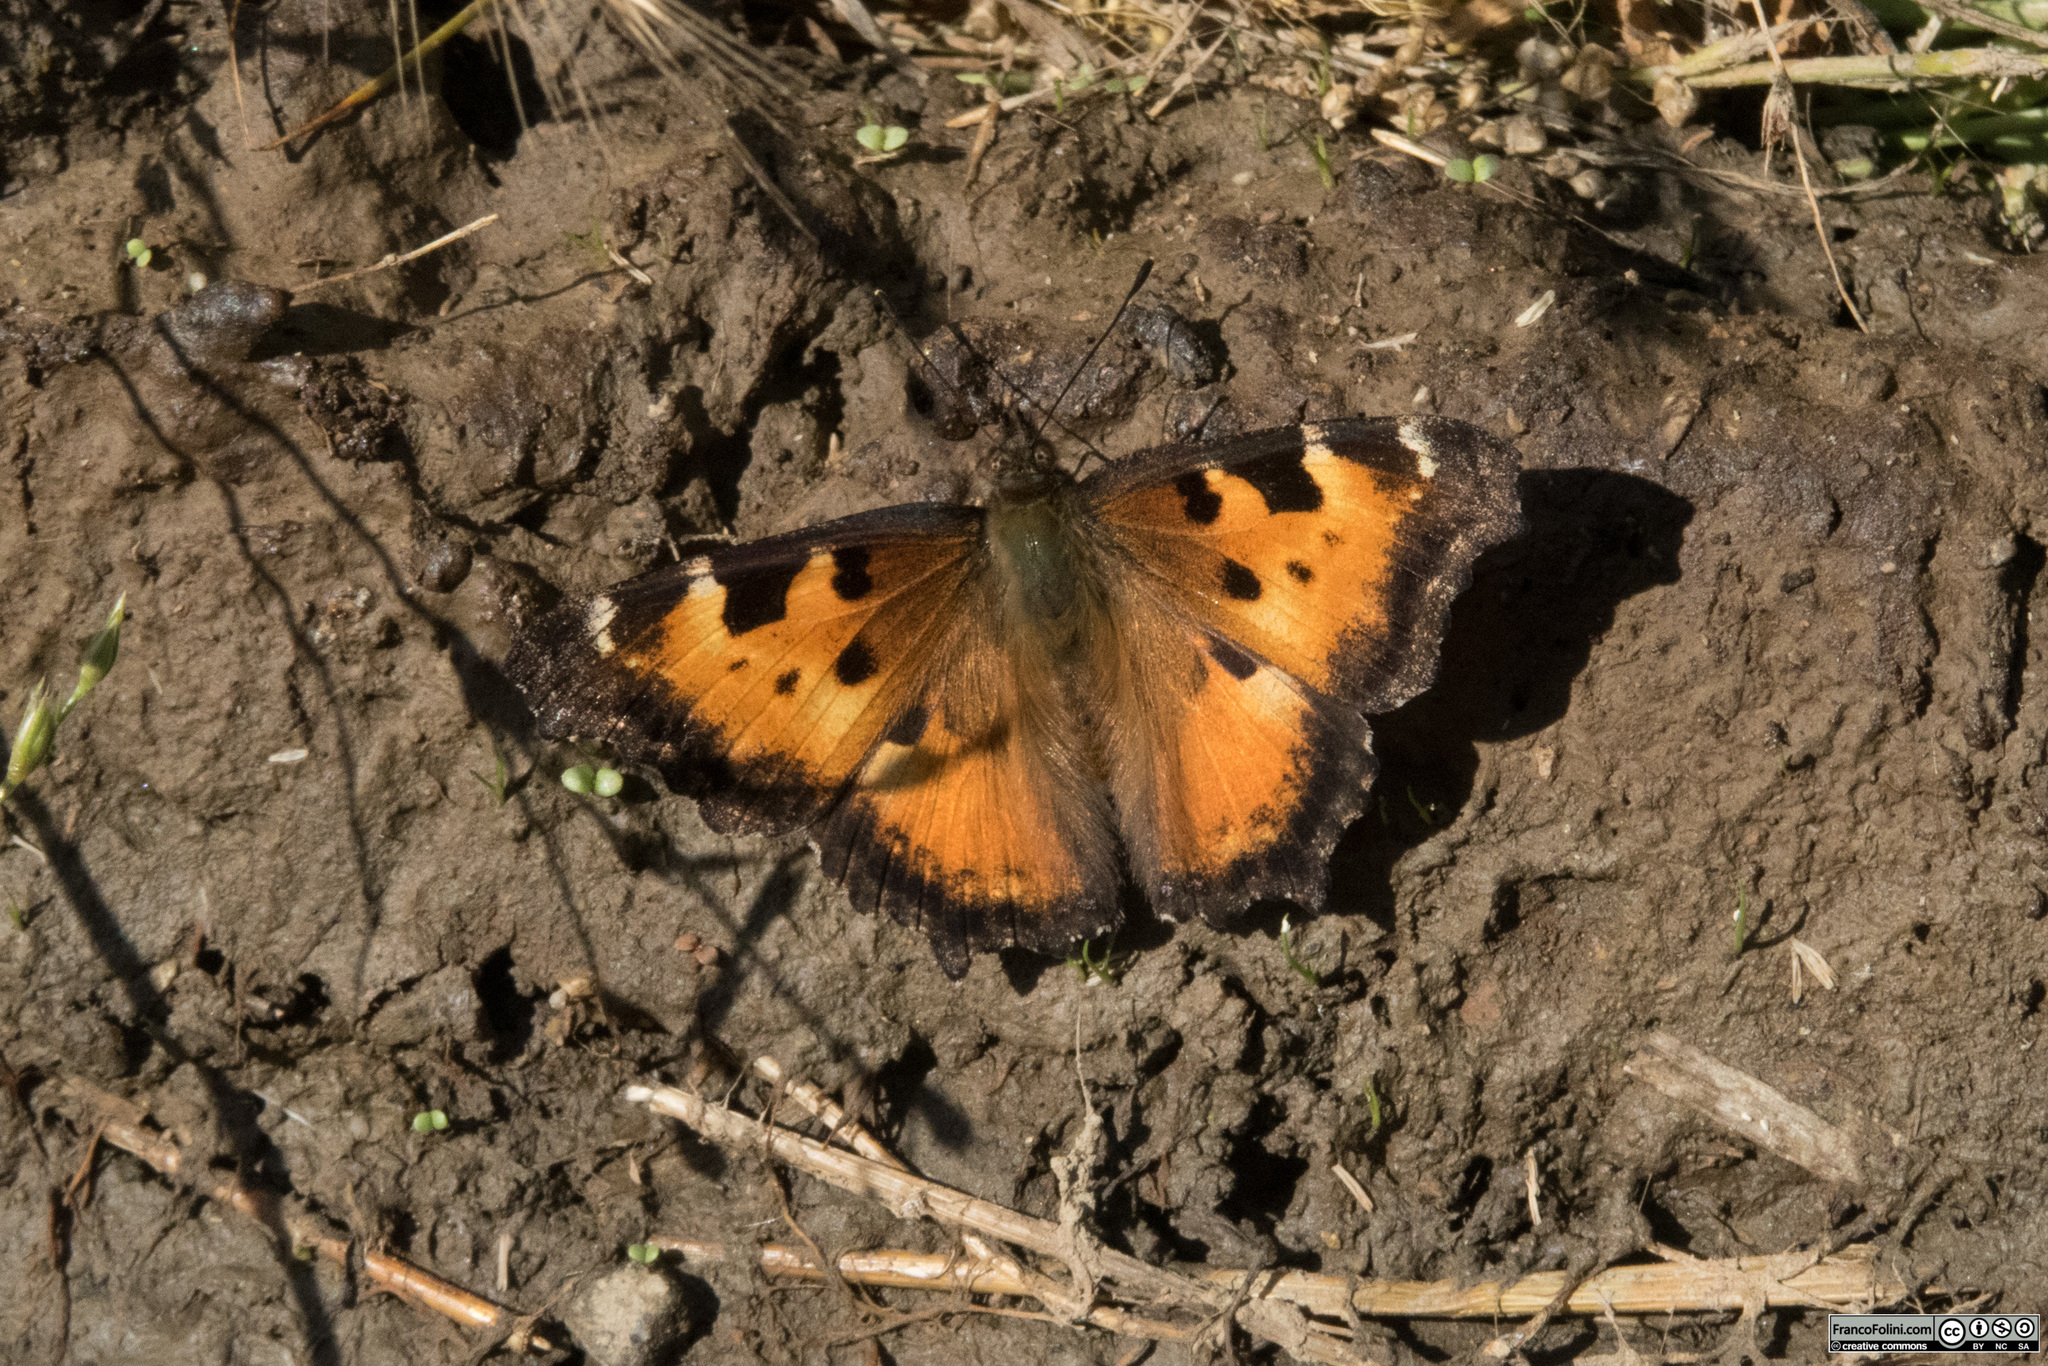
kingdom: Animalia
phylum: Arthropoda
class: Insecta
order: Lepidoptera
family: Nymphalidae
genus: Nymphalis
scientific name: Nymphalis californica
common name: California tortoiseshell
